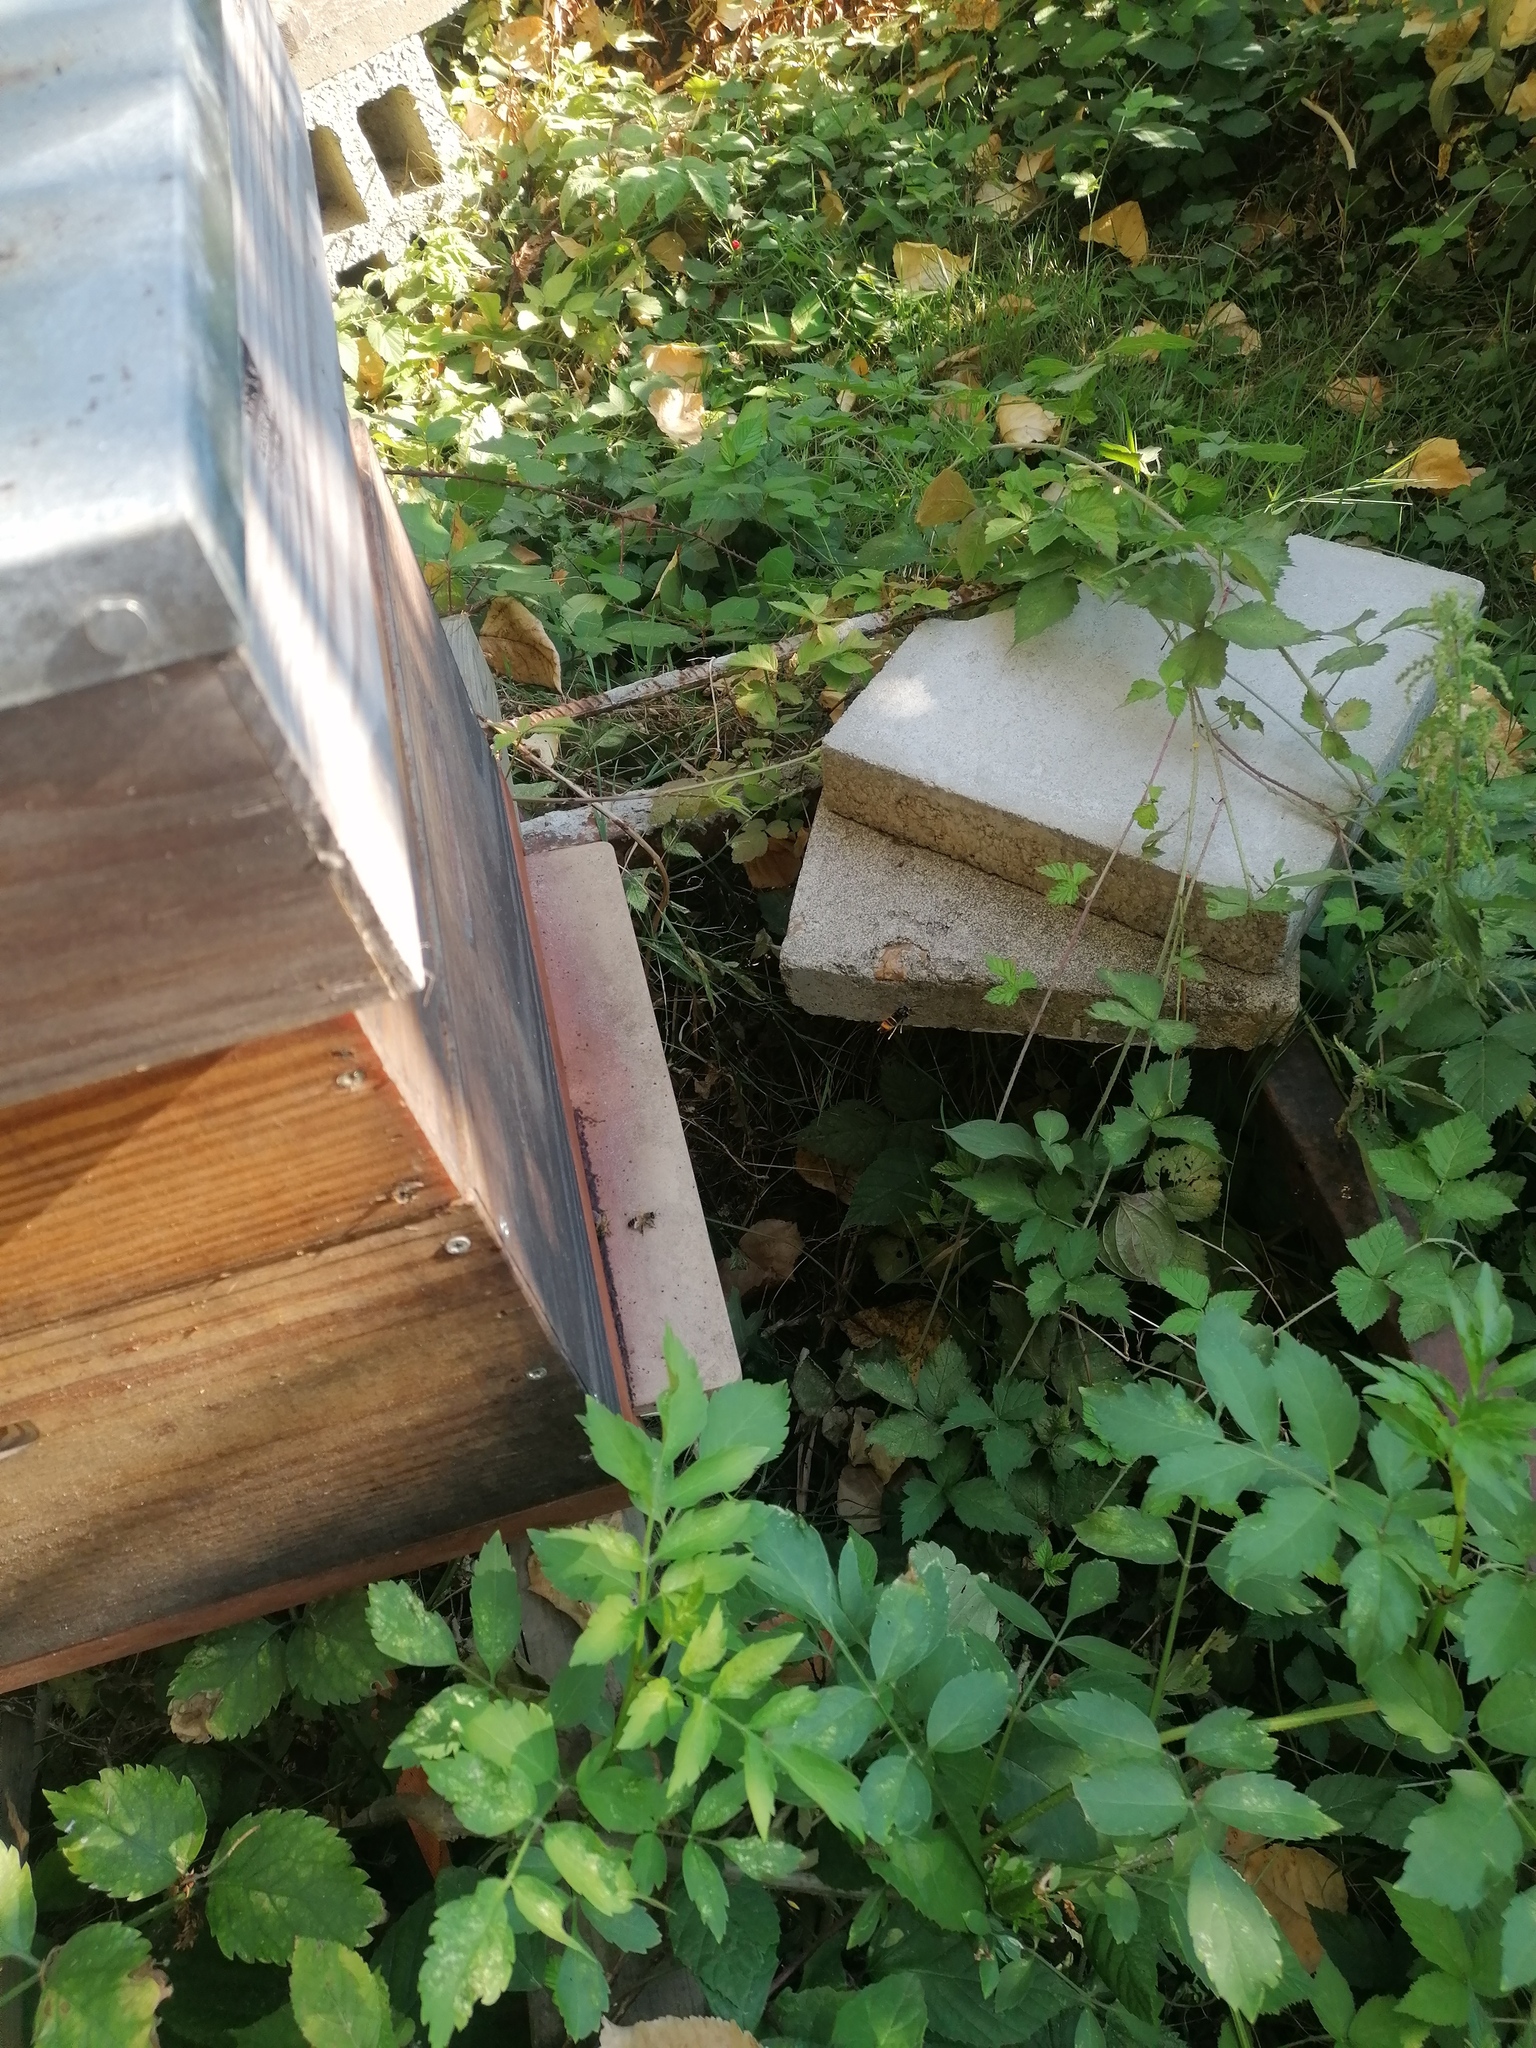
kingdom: Animalia
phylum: Arthropoda
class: Insecta
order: Hymenoptera
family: Vespidae
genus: Vespa
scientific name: Vespa velutina
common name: Asian hornet
